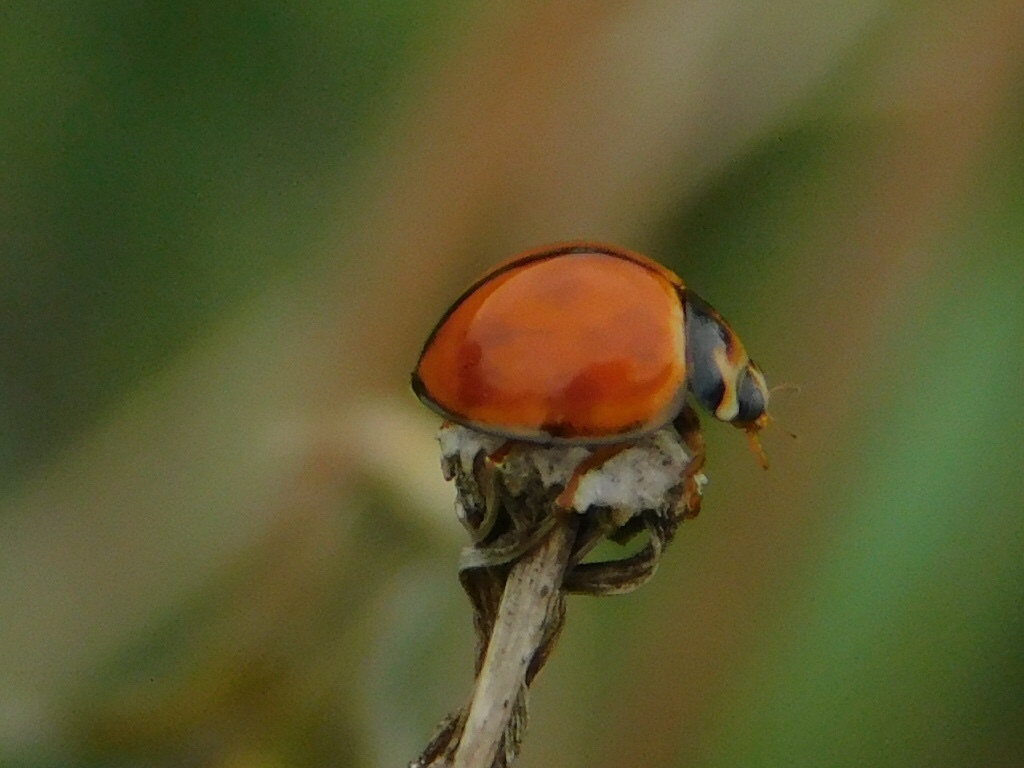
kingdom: Animalia
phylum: Arthropoda
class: Insecta
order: Coleoptera
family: Coccinellidae
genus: Coelophora
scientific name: Coelophora inaequalis
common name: Common australian lady beetle
